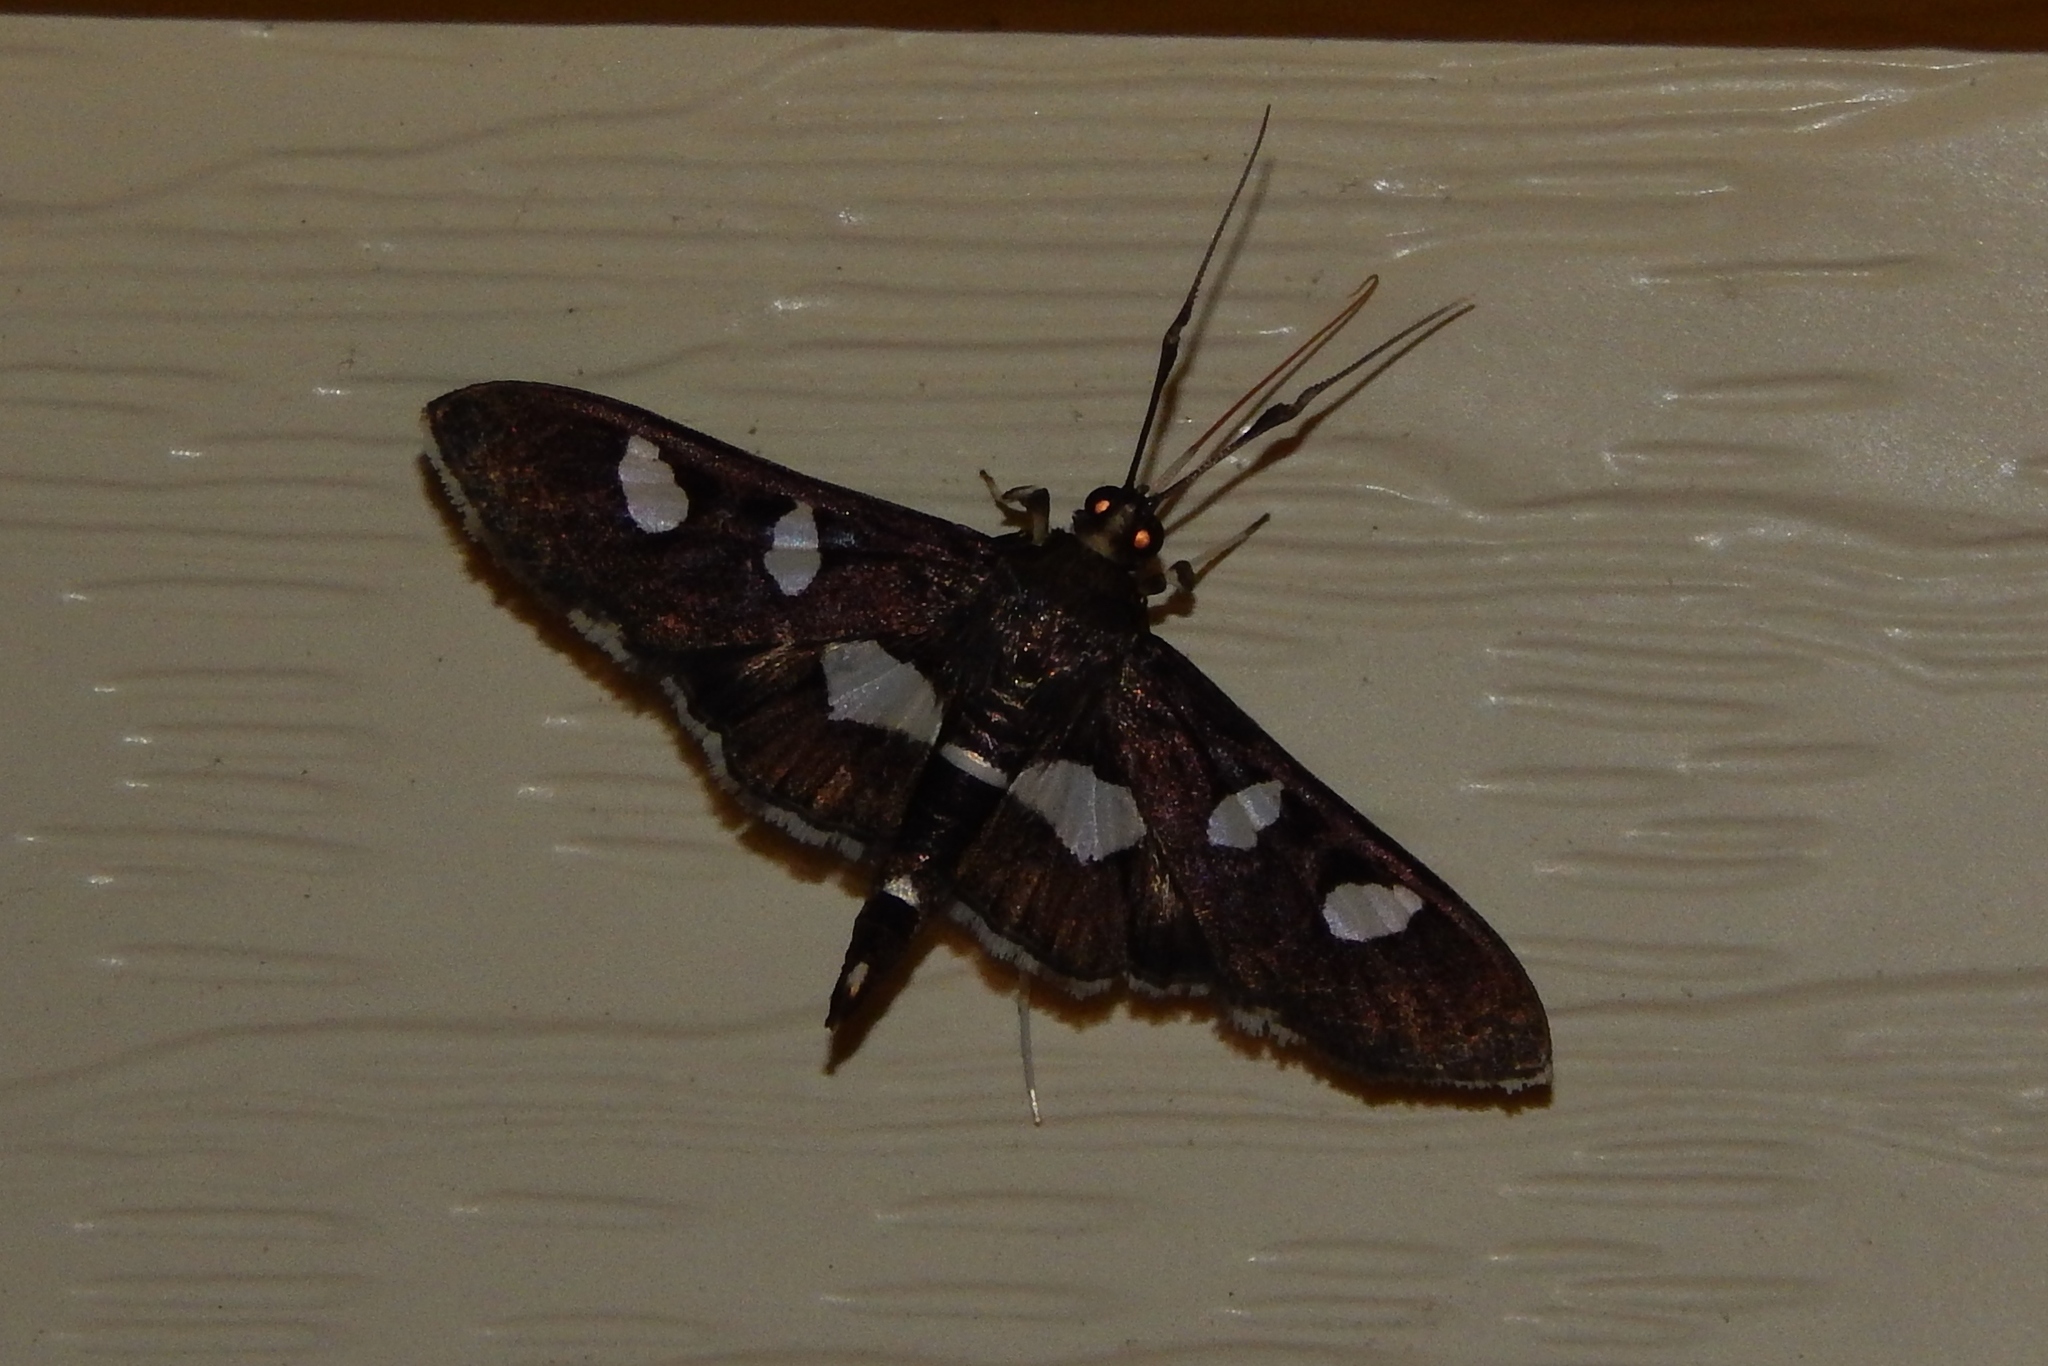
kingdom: Animalia
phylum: Arthropoda
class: Insecta
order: Lepidoptera
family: Crambidae
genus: Desmia
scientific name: Desmia
